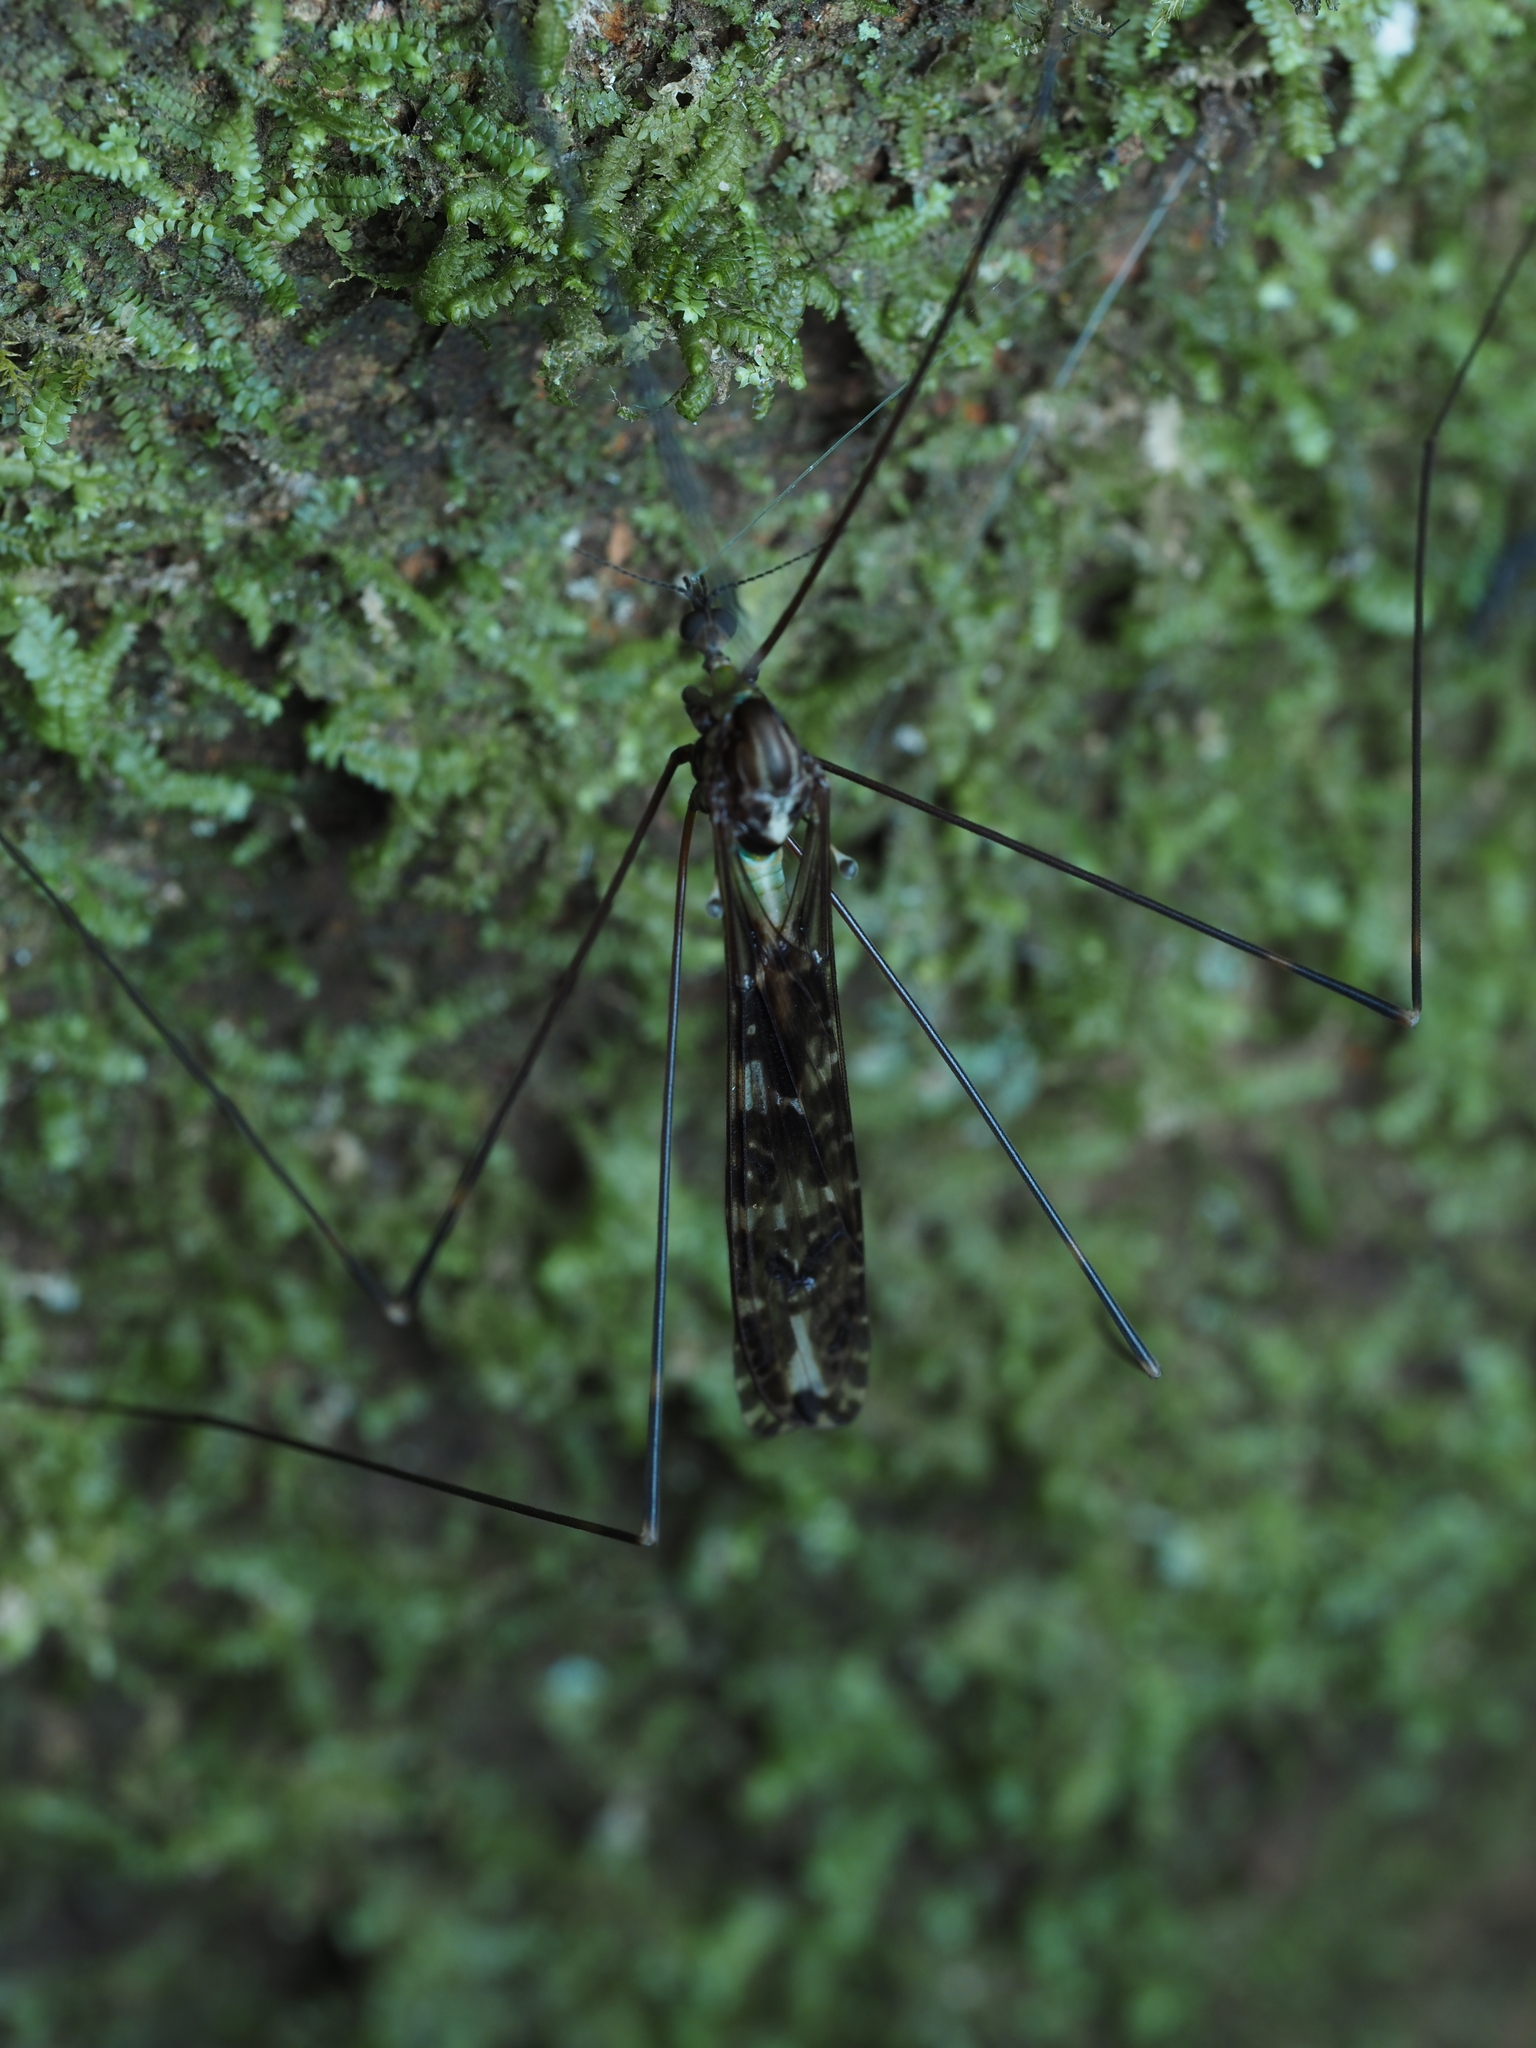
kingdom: Animalia
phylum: Arthropoda
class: Insecta
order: Diptera
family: Limoniidae
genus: Discobola
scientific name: Discobola dohrni
